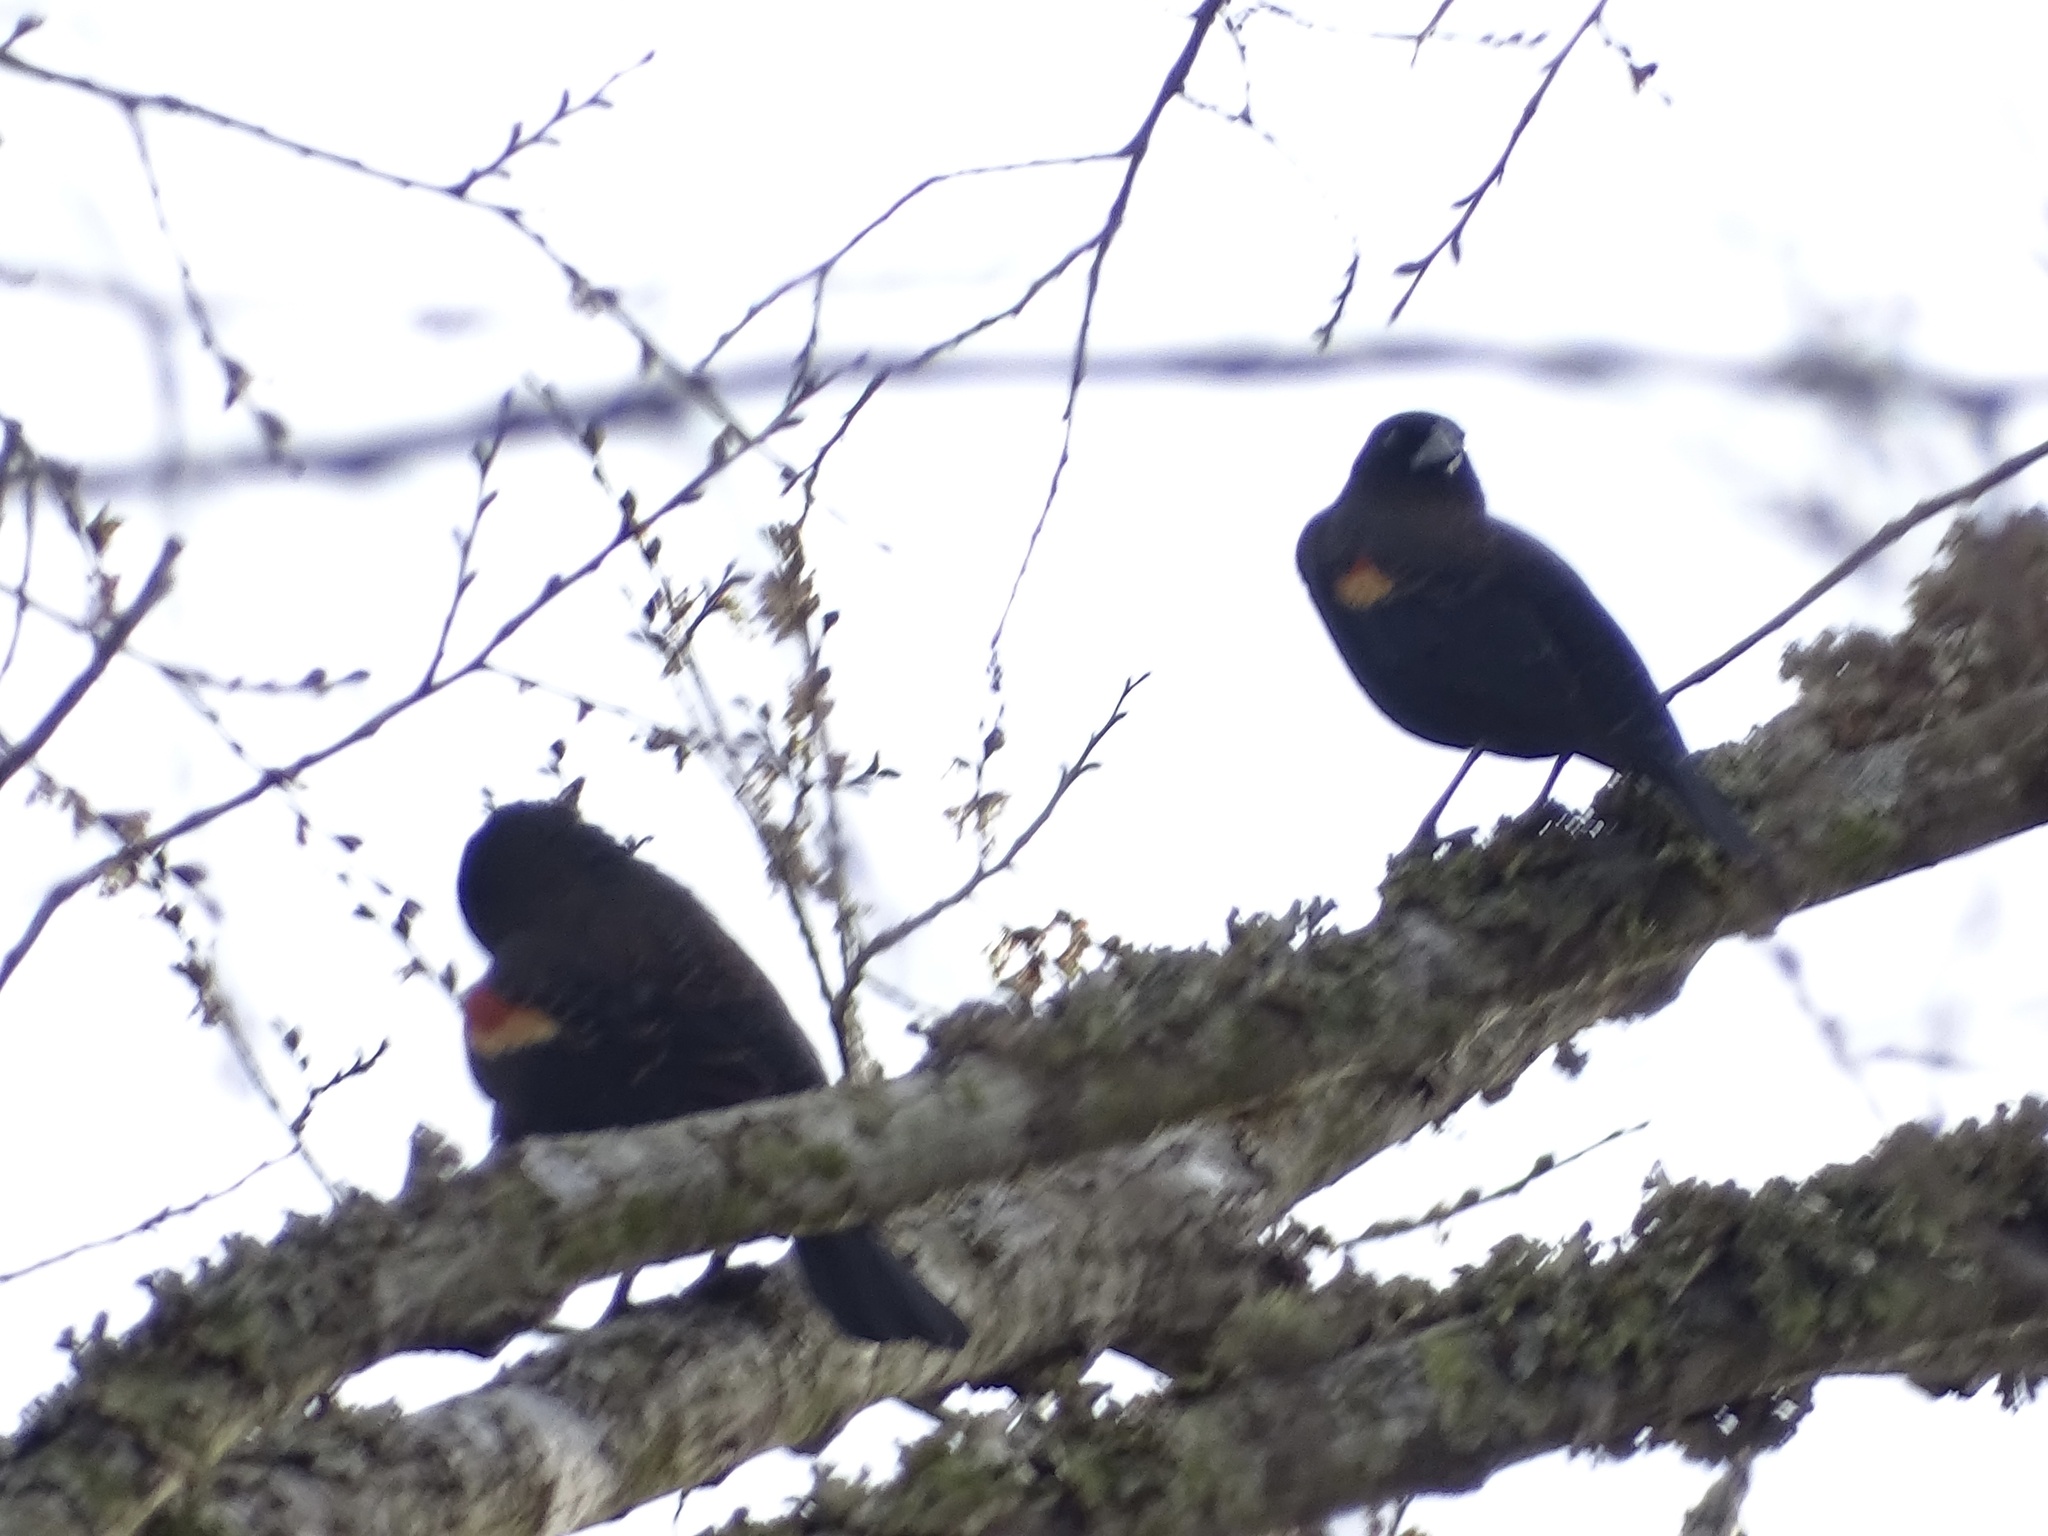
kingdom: Animalia
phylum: Chordata
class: Aves
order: Passeriformes
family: Icteridae
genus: Agelaius
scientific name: Agelaius phoeniceus
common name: Red-winged blackbird
